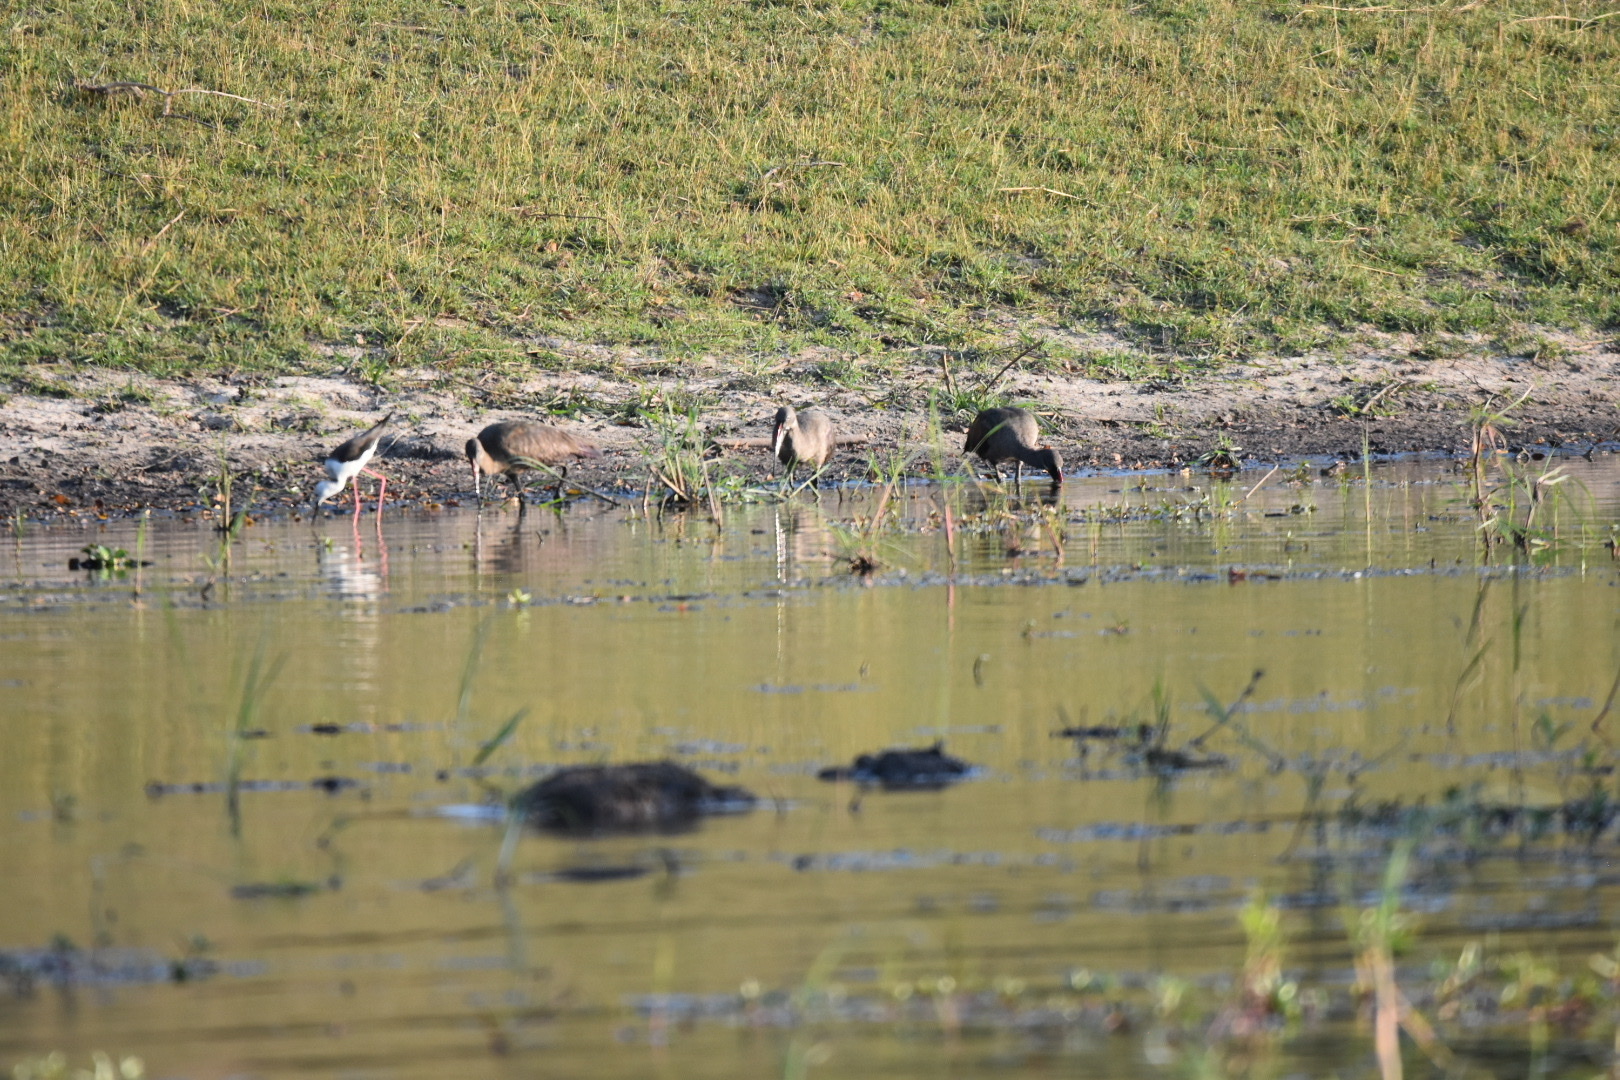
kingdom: Animalia
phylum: Chordata
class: Aves
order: Pelecaniformes
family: Threskiornithidae
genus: Bostrychia
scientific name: Bostrychia hagedash
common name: Hadada ibis
